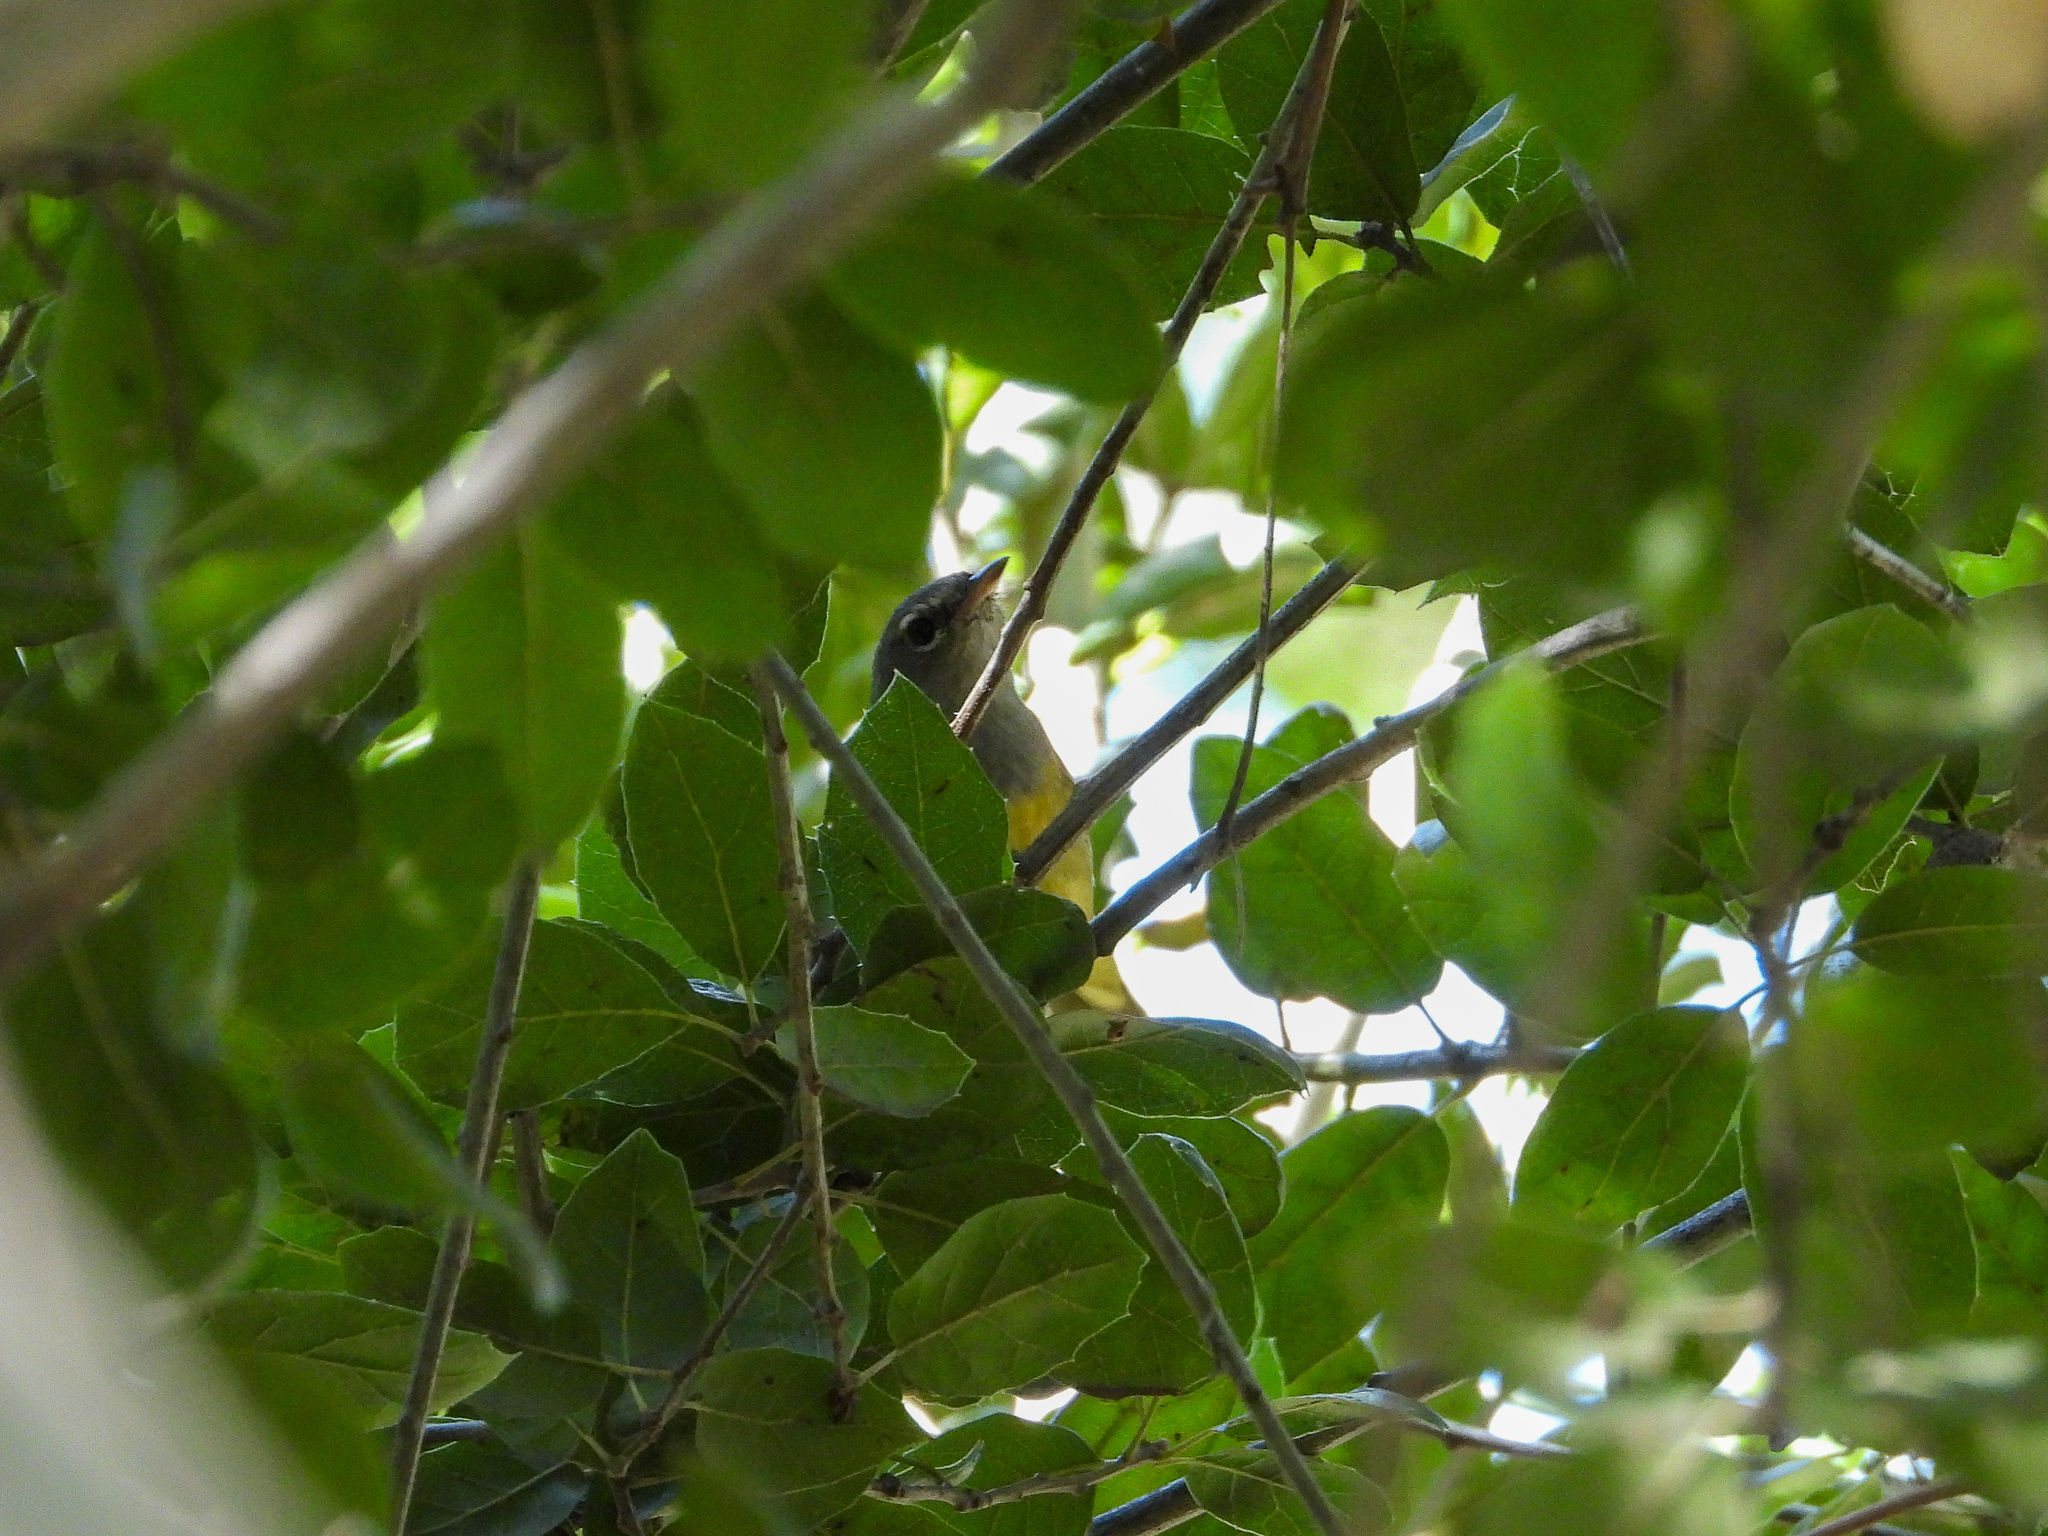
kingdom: Animalia
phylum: Chordata
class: Aves
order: Passeriformes
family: Parulidae
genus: Geothlypis
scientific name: Geothlypis tolmiei
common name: Macgillivray's warbler
